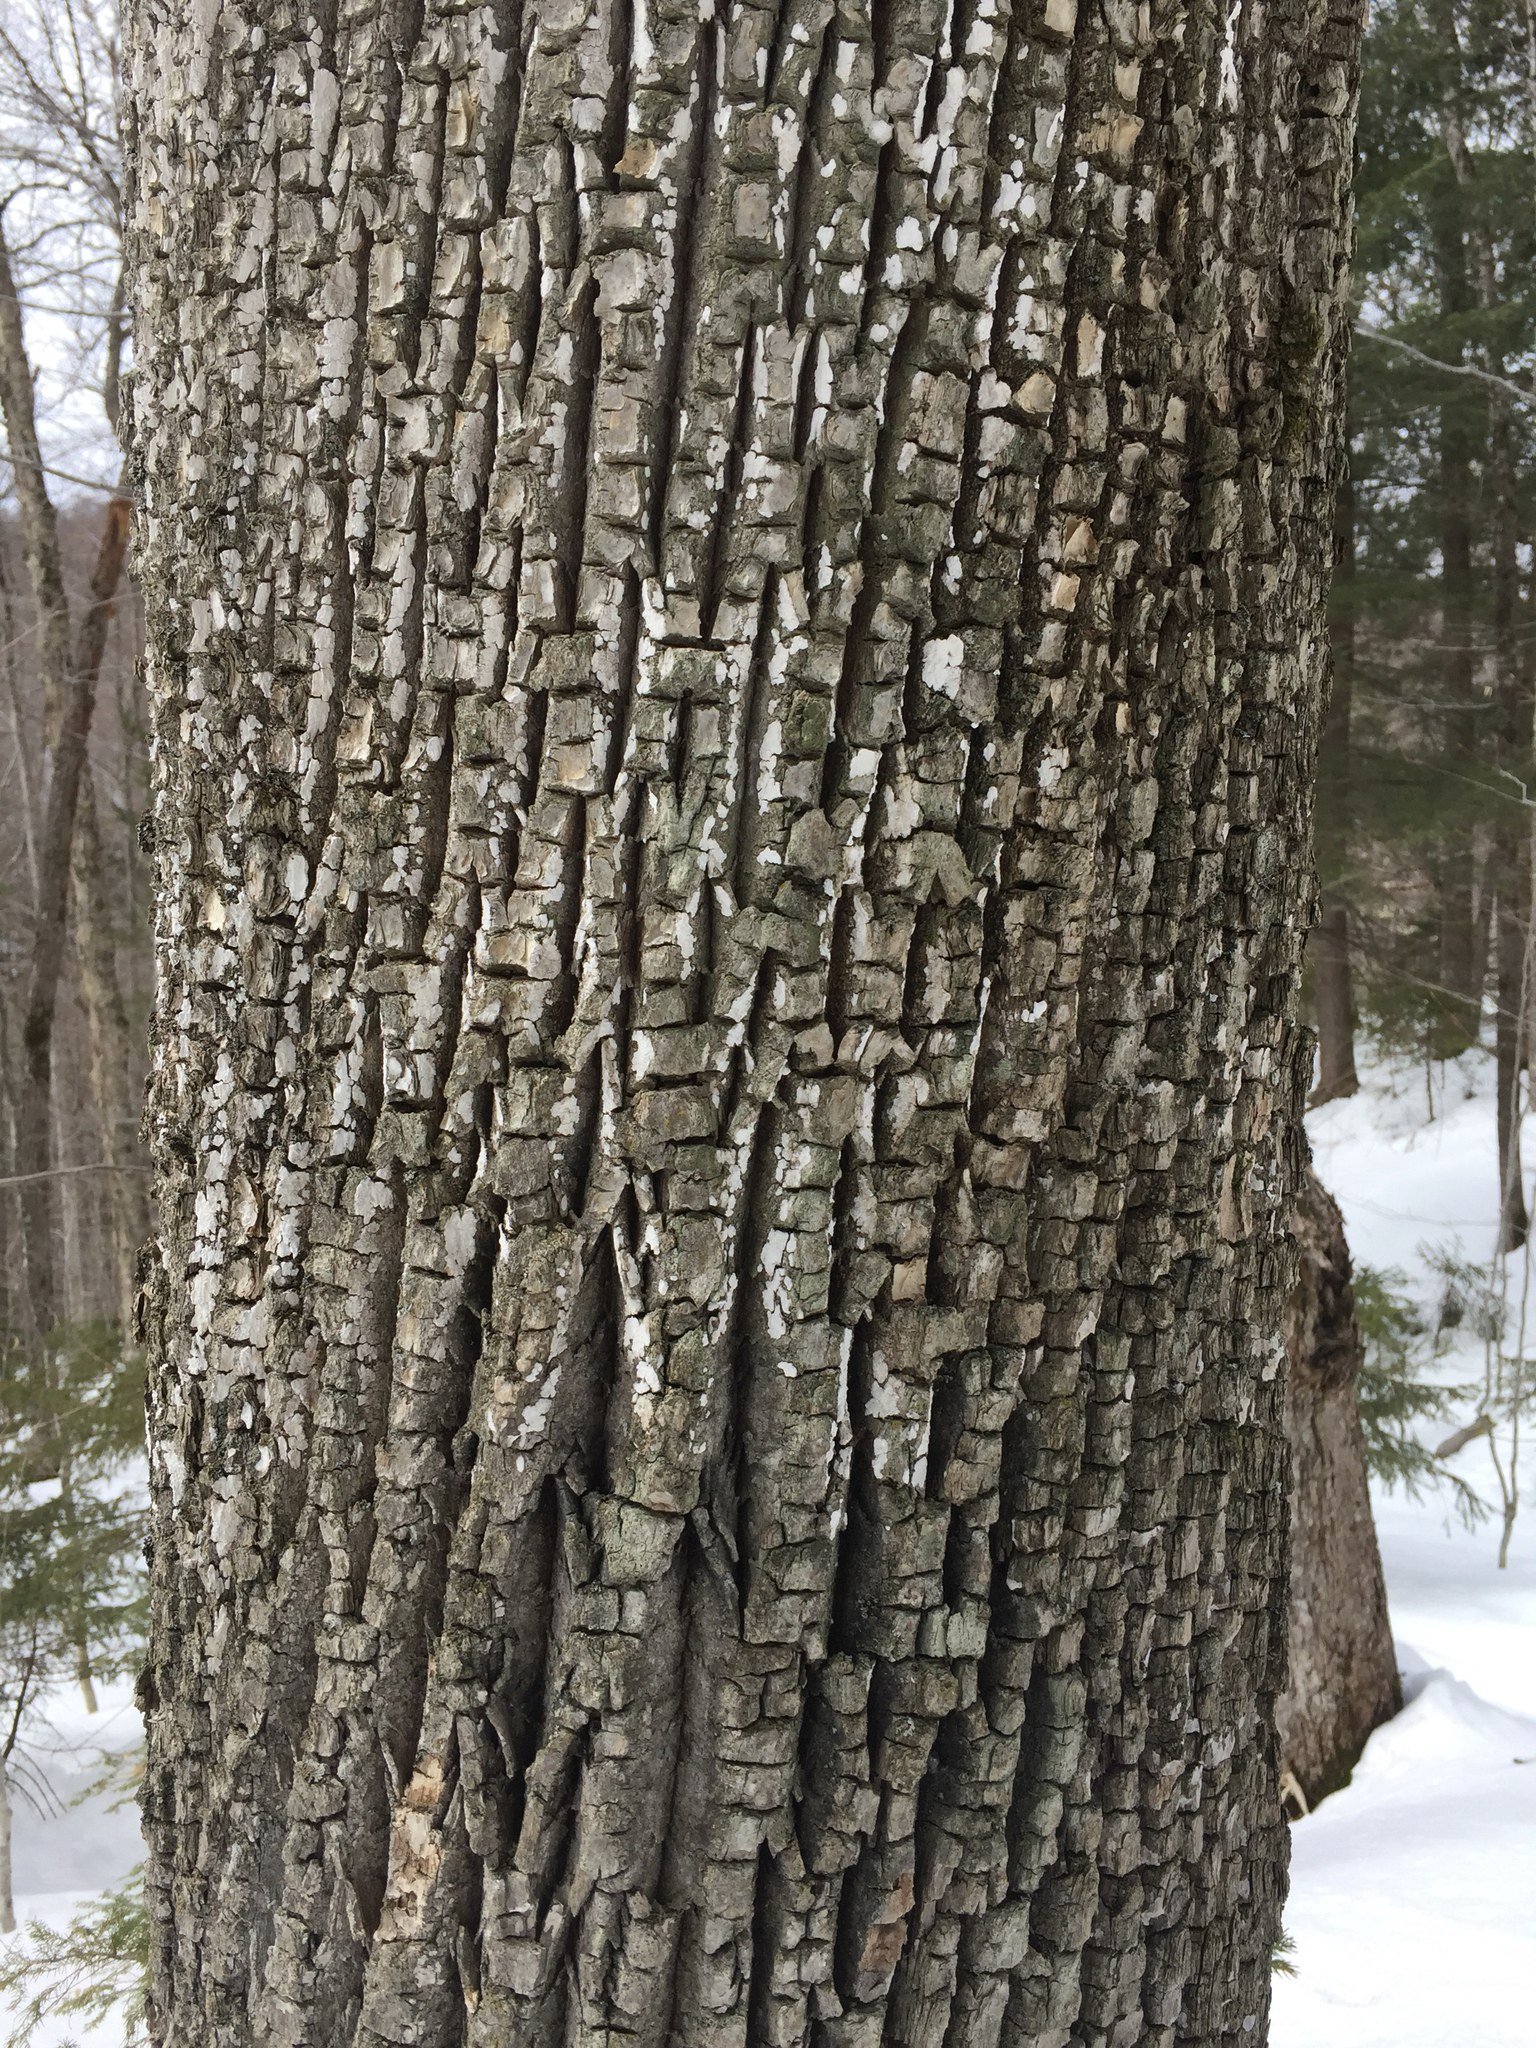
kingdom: Plantae
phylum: Tracheophyta
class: Magnoliopsida
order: Lamiales
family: Oleaceae
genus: Fraxinus
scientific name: Fraxinus americana
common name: White ash
